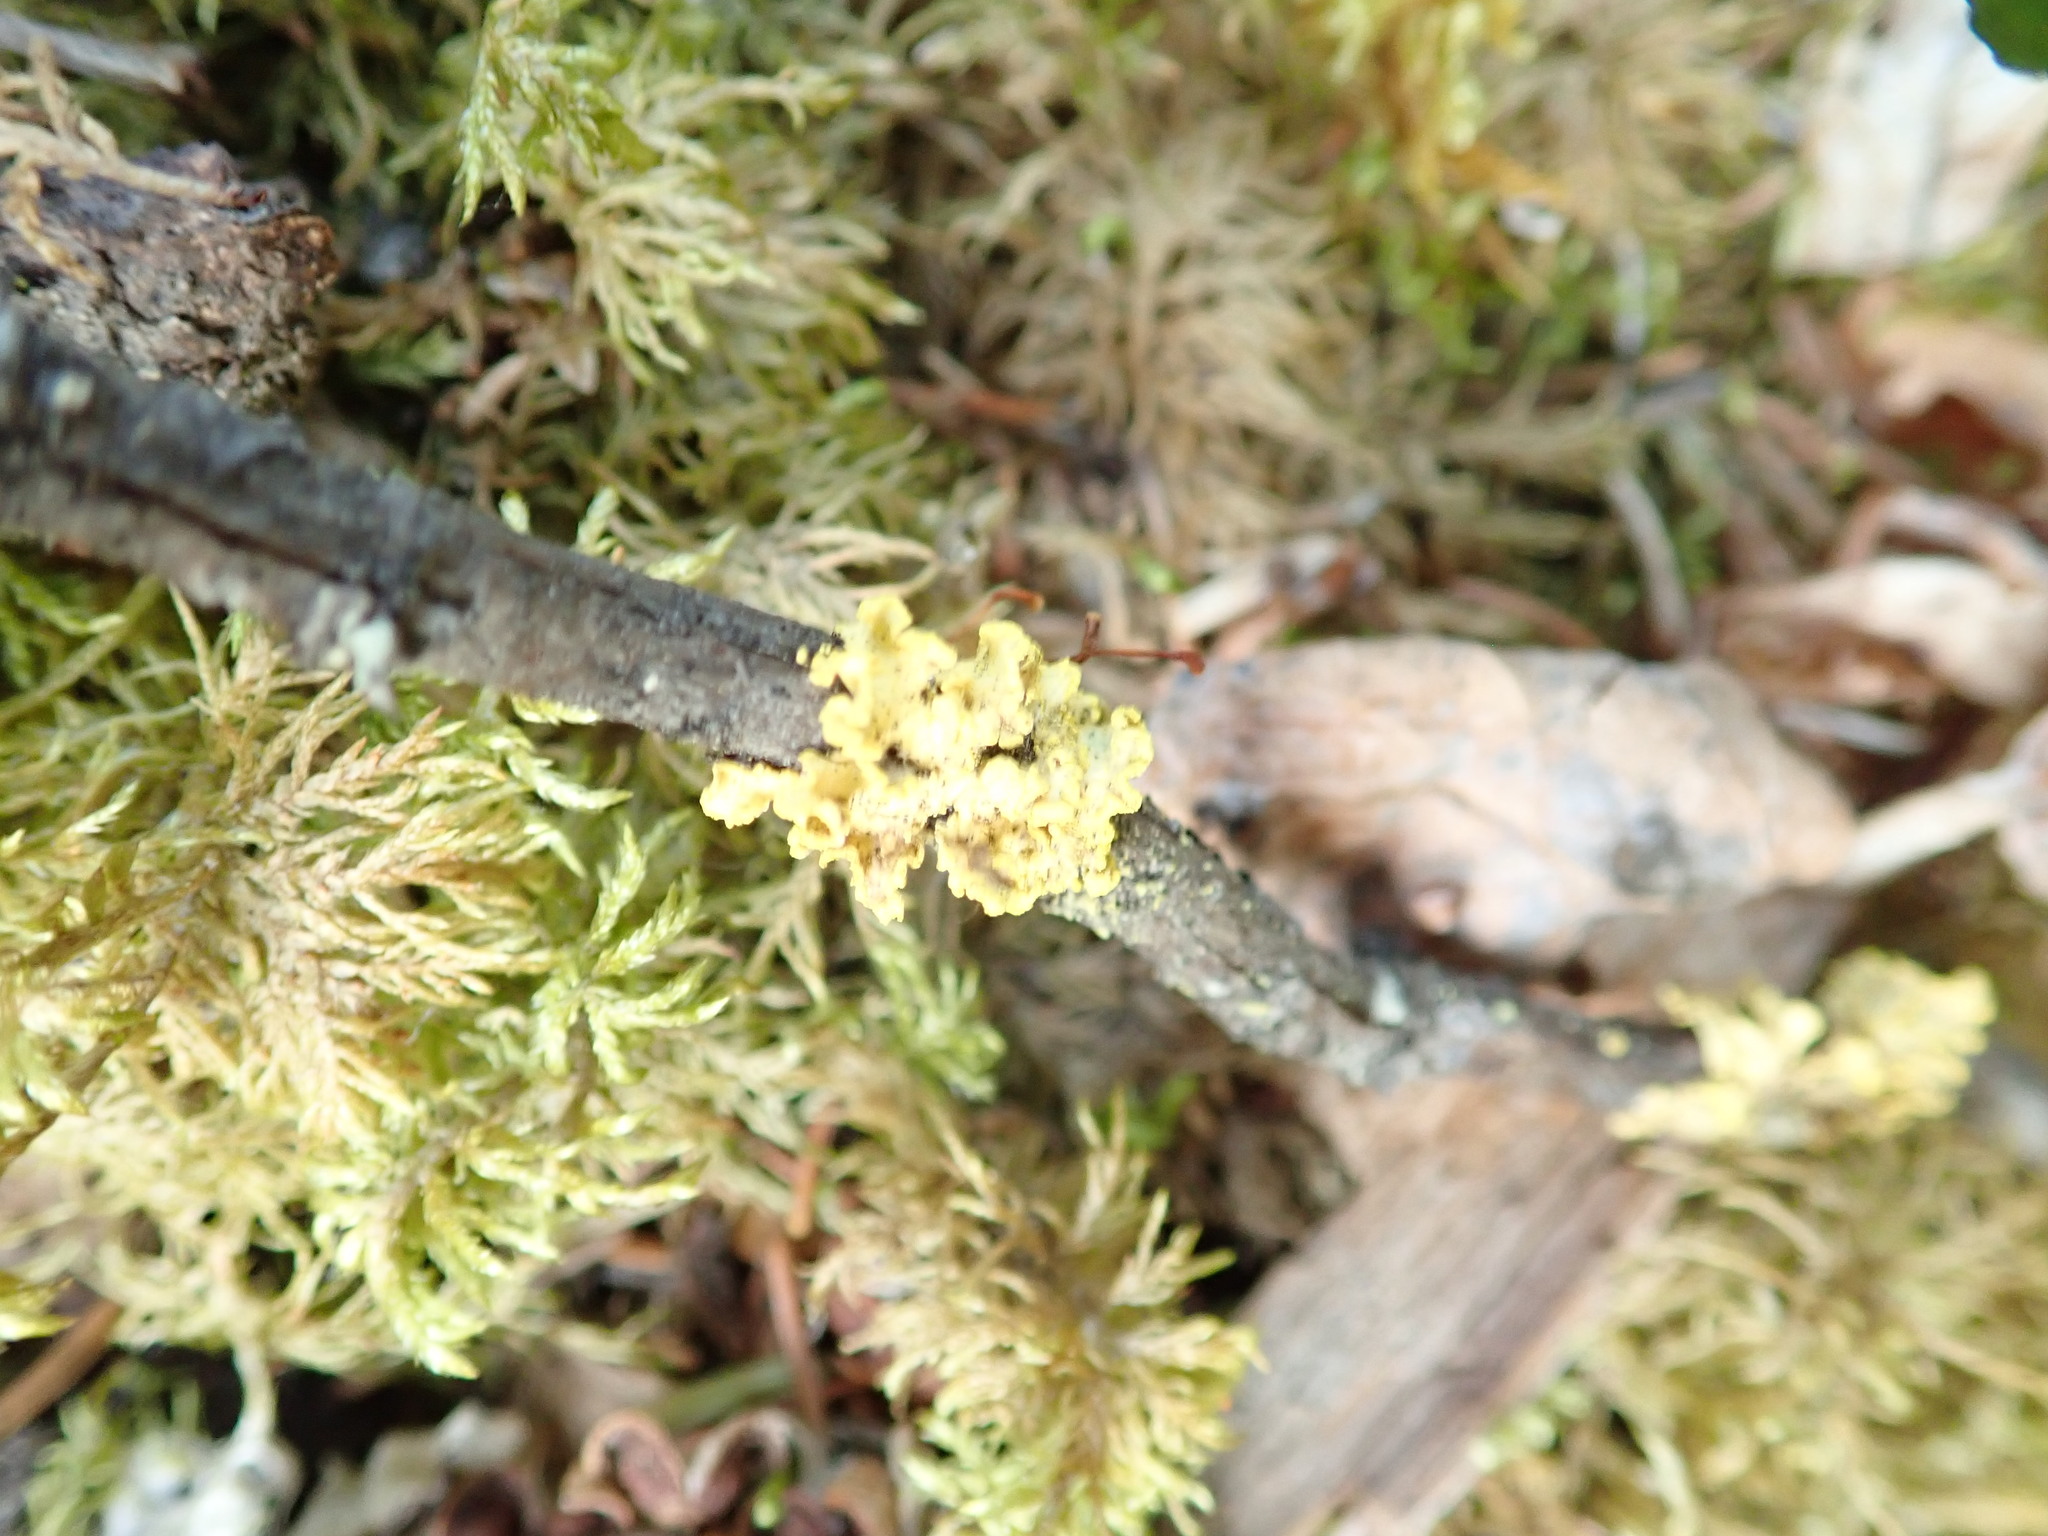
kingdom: Fungi
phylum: Ascomycota
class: Lecanoromycetes
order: Lecanorales
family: Parmeliaceae
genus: Vulpicida
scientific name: Vulpicida pinastri
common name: Powdered sunshine lichen
